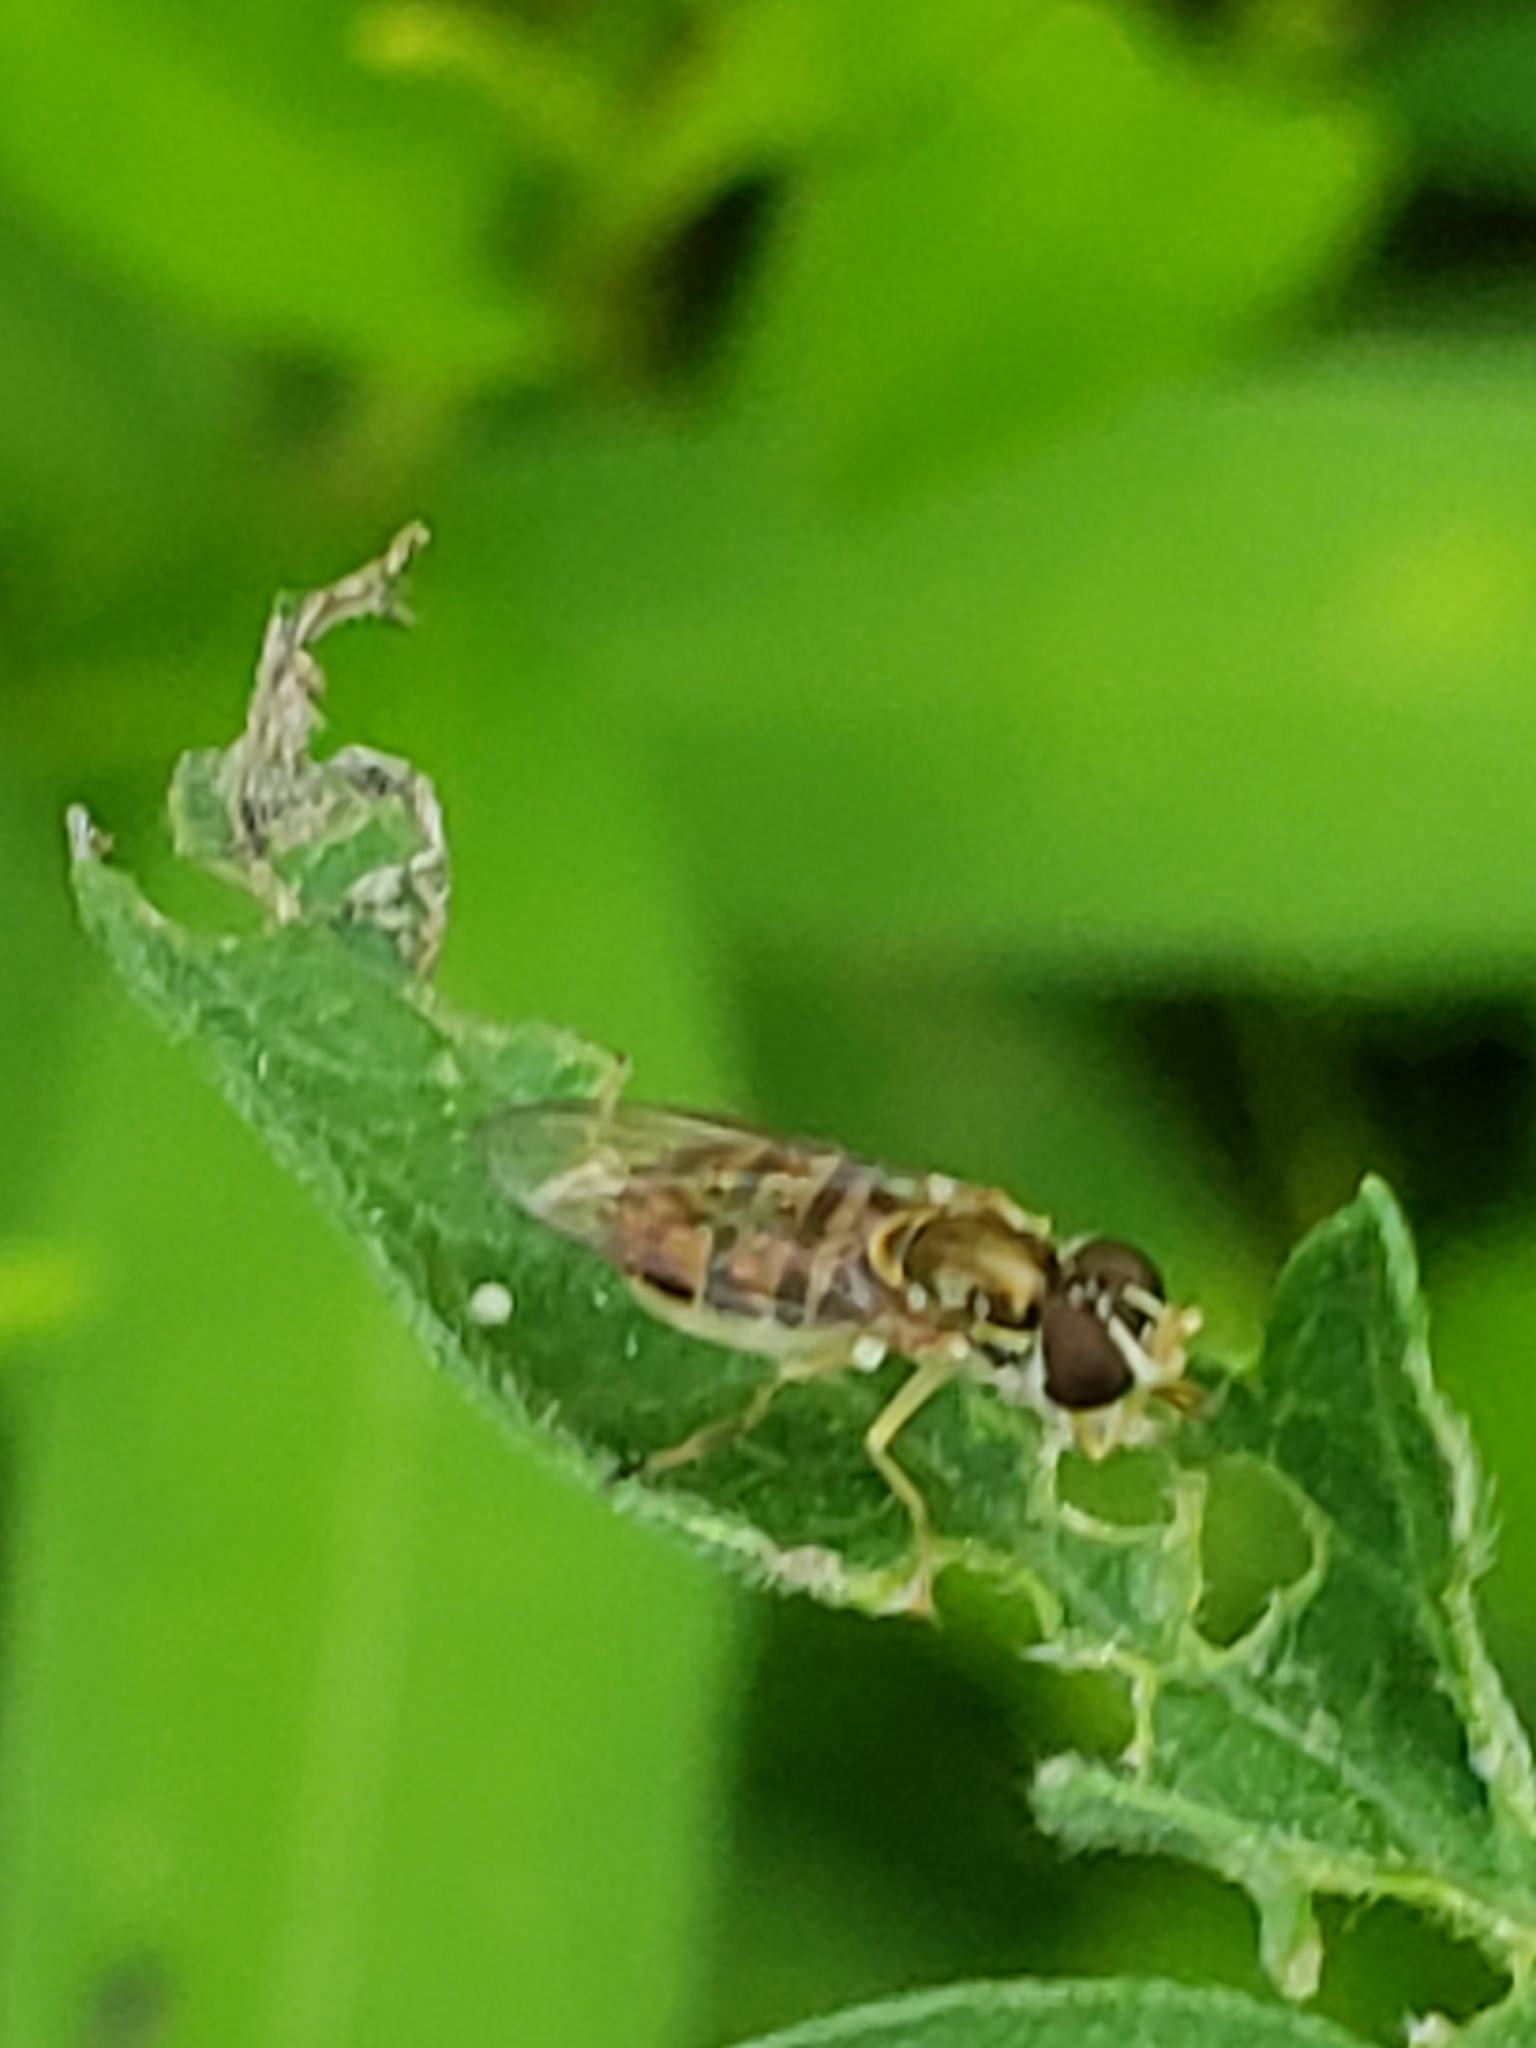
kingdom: Animalia
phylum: Arthropoda
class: Insecta
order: Diptera
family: Syrphidae
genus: Toxomerus
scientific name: Toxomerus marginatus
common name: Syrphid fly
